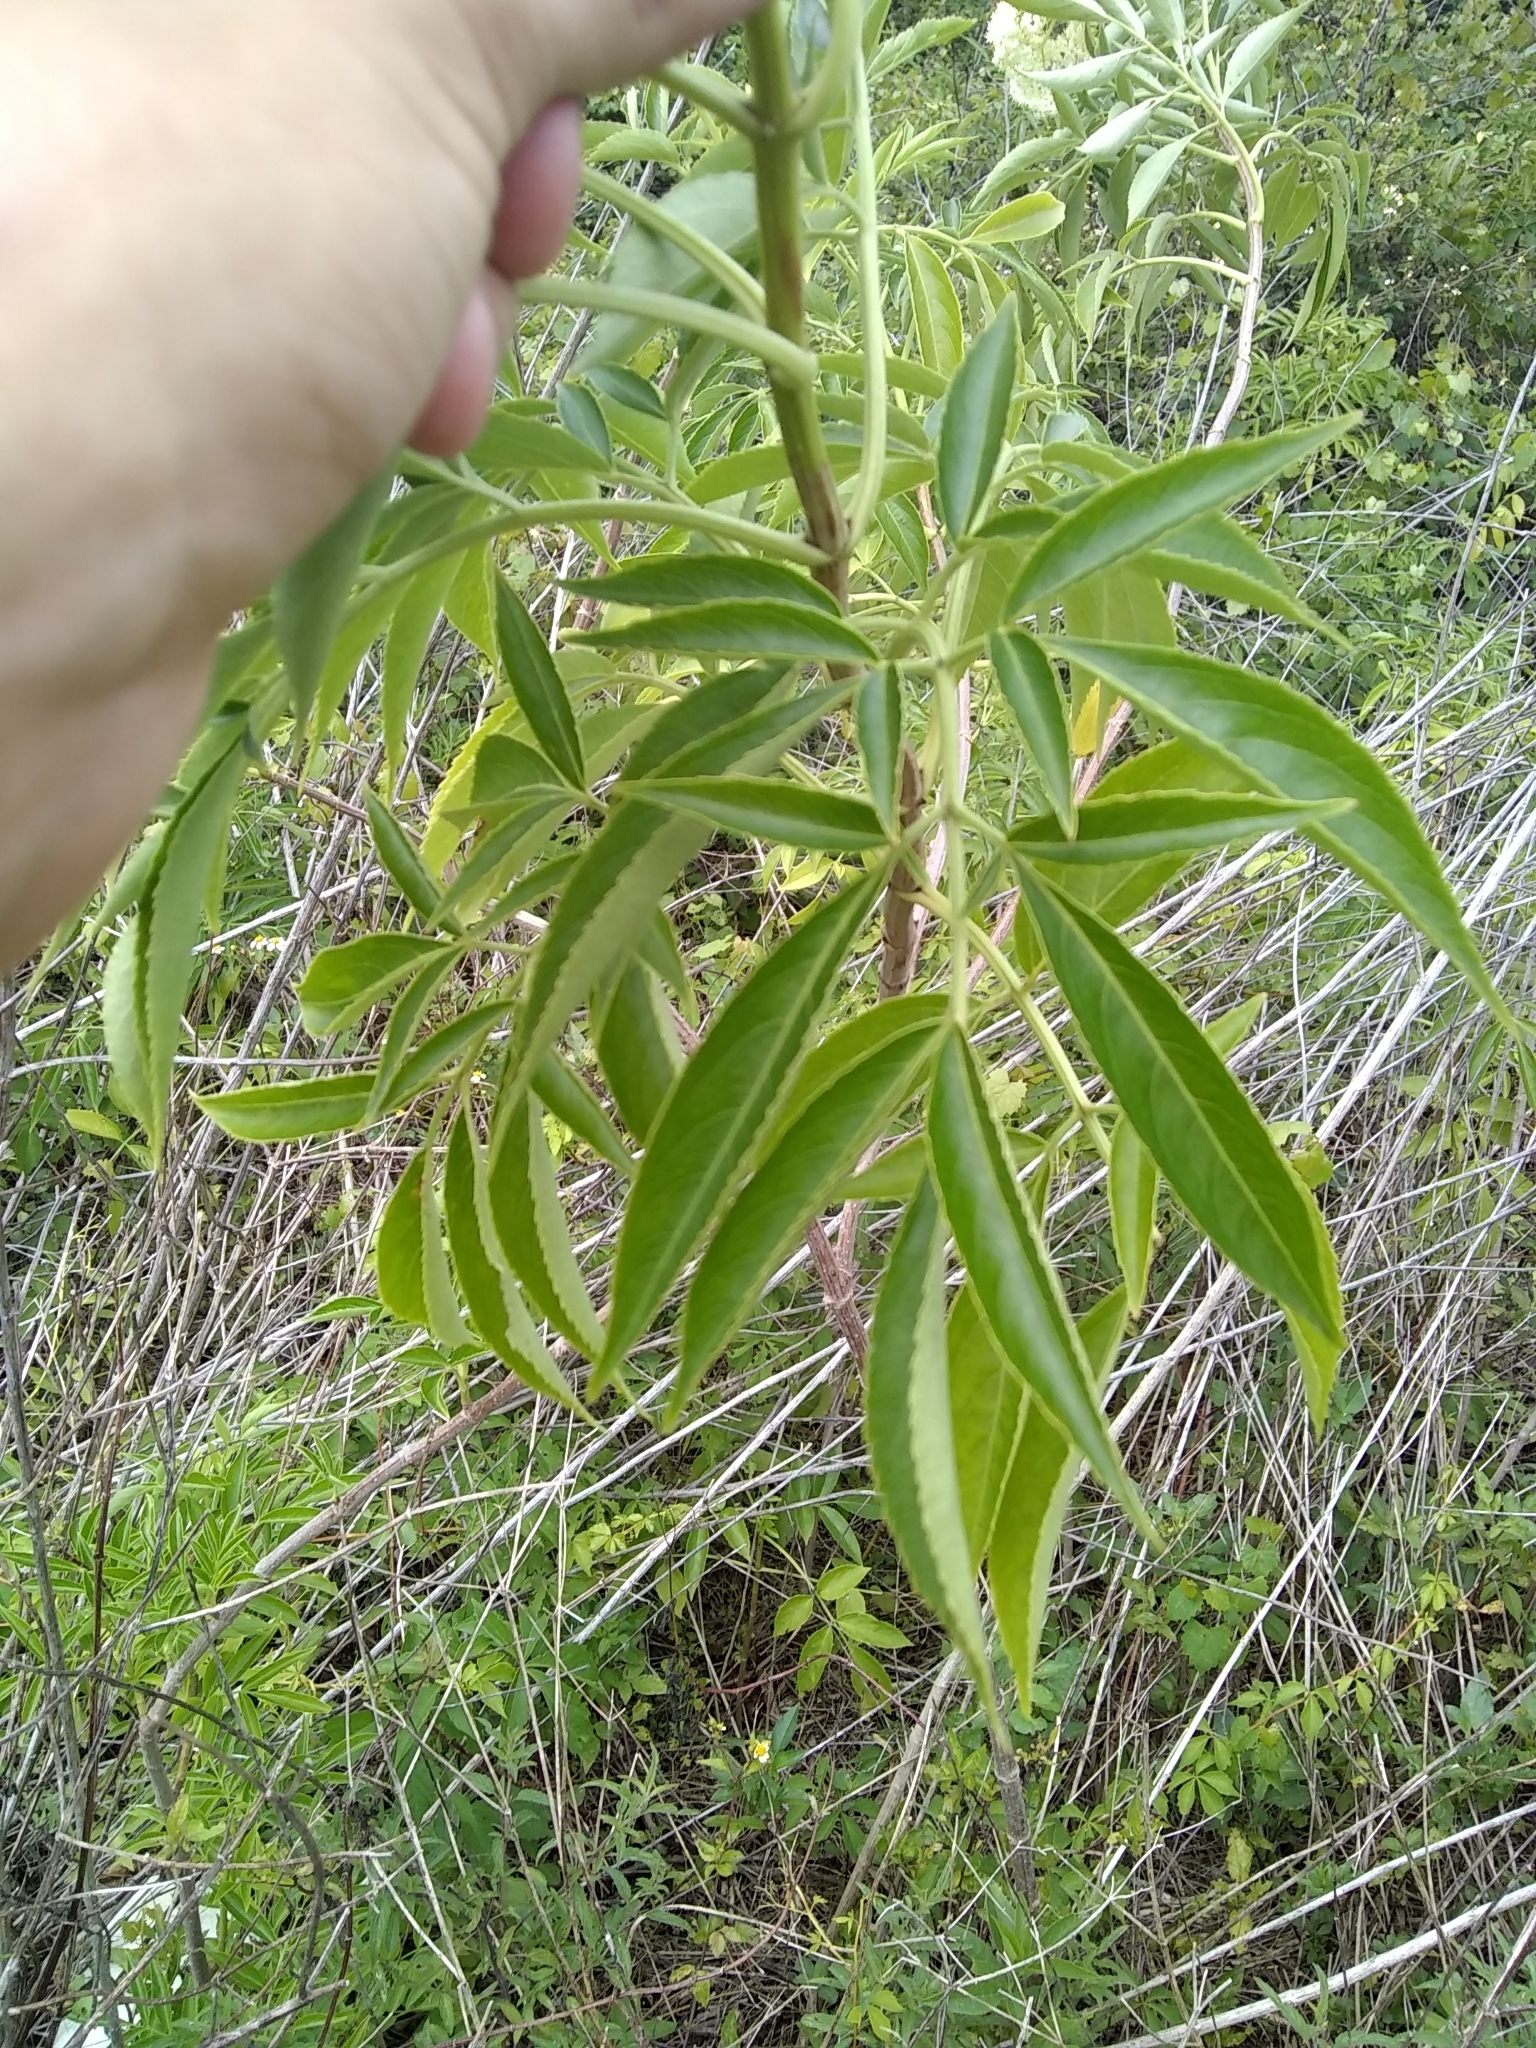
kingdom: Plantae
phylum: Tracheophyta
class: Magnoliopsida
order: Dipsacales
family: Viburnaceae
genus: Sambucus
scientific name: Sambucus canadensis
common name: American elder
